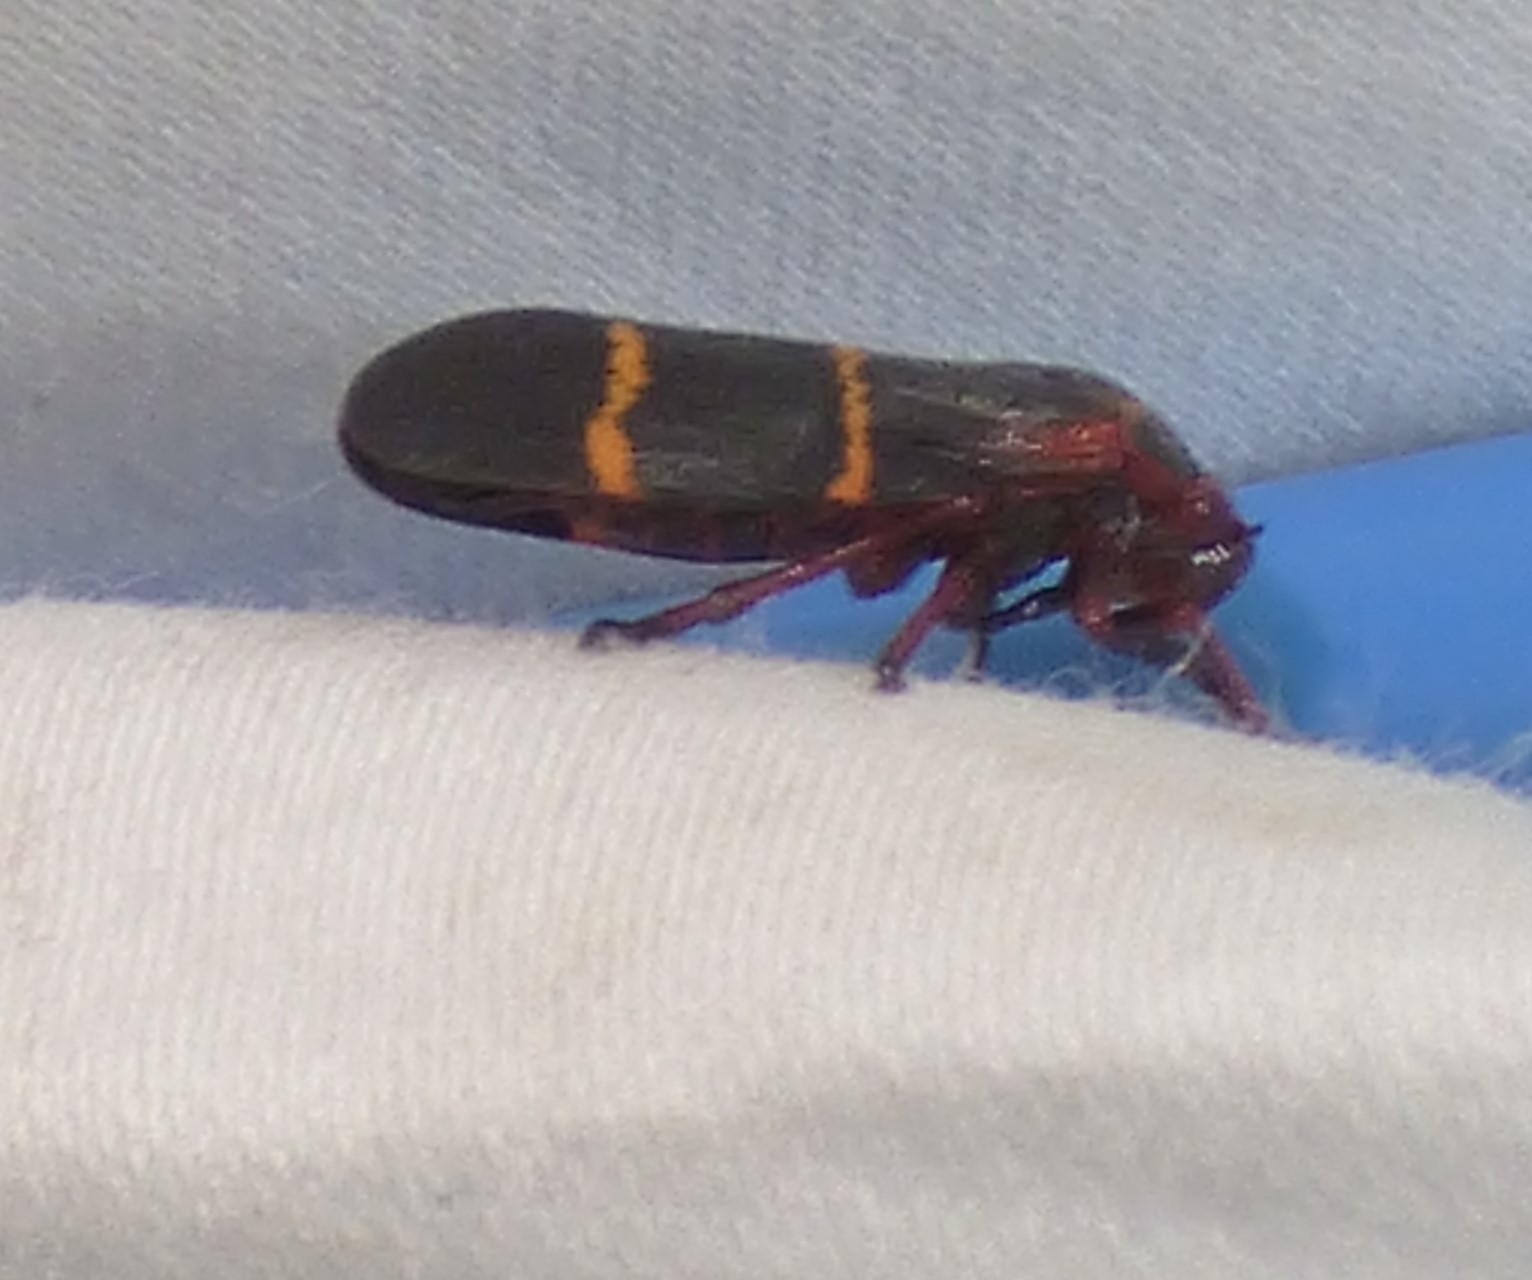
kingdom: Animalia
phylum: Arthropoda
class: Insecta
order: Hemiptera
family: Cercopidae
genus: Prosapia
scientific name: Prosapia bicincta
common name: Twolined spittlebug
